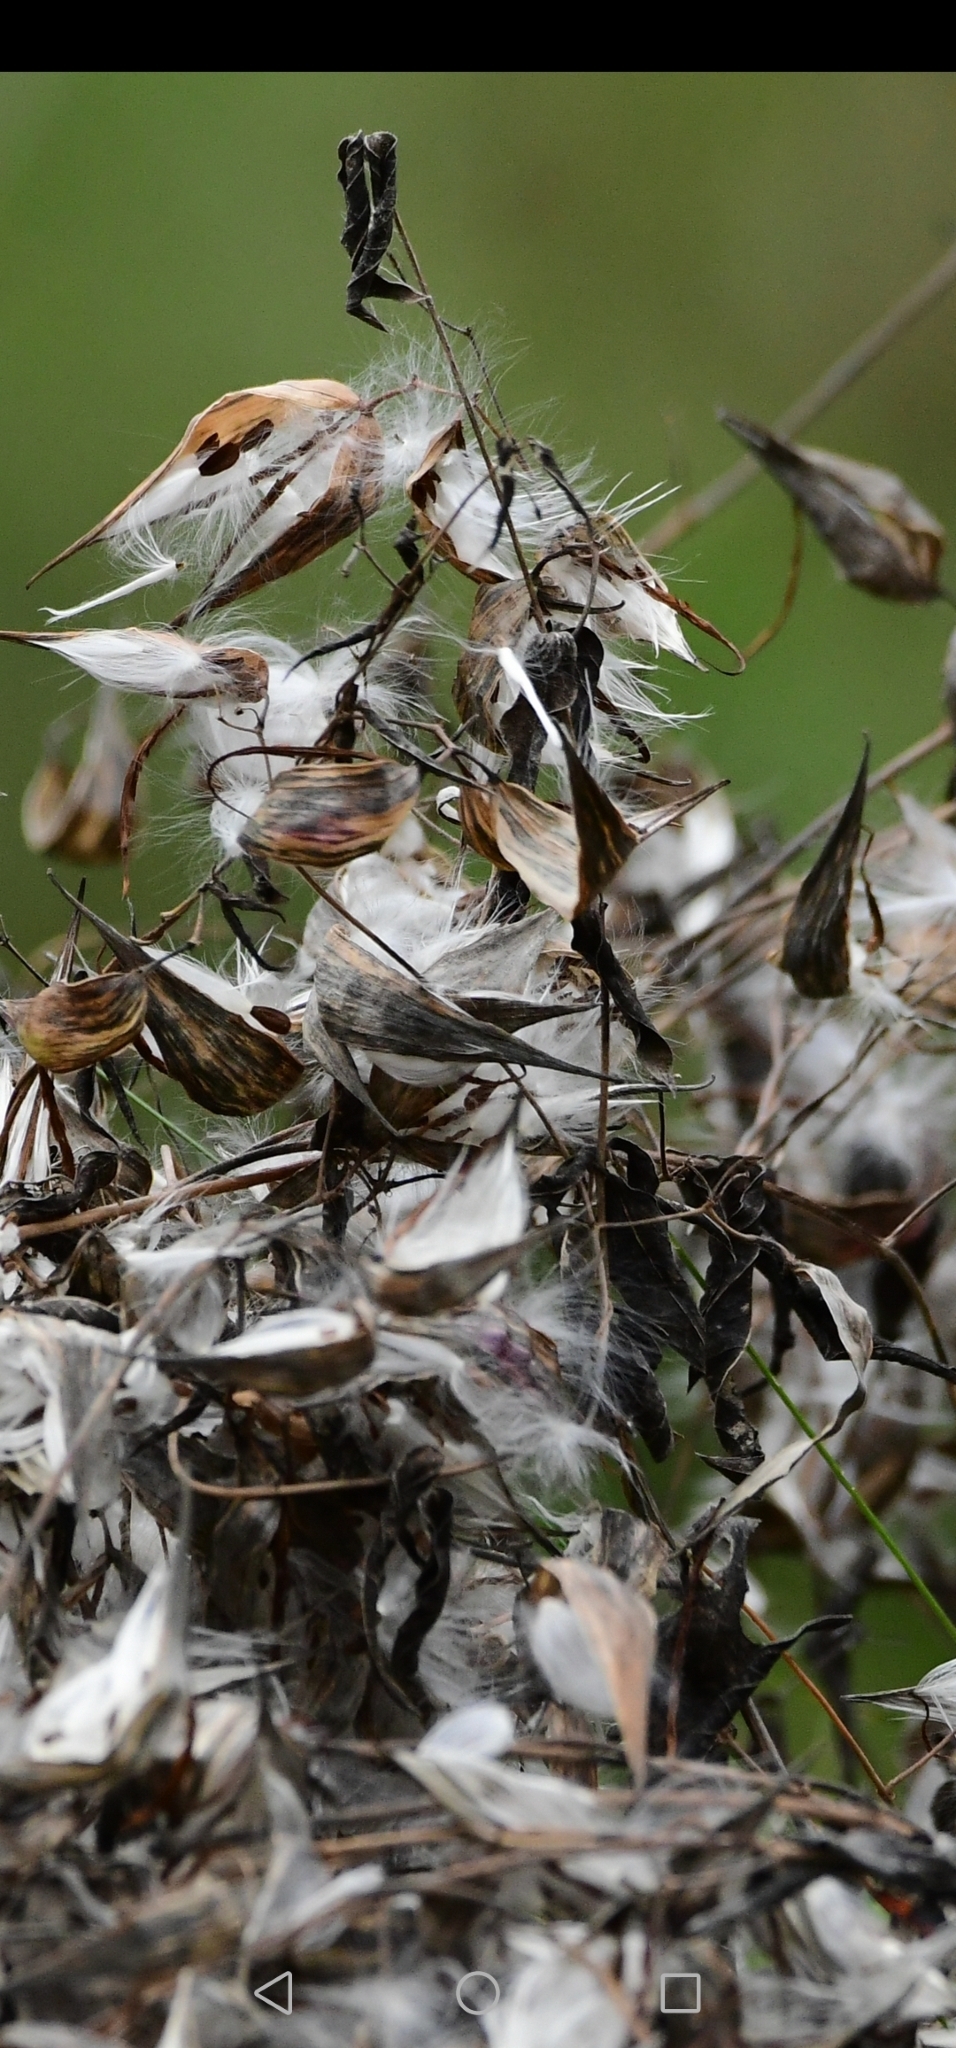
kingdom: Plantae
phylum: Tracheophyta
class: Magnoliopsida
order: Gentianales
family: Apocynaceae
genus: Vincetoxicum
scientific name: Vincetoxicum rossicum
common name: Dog-strangling vine
